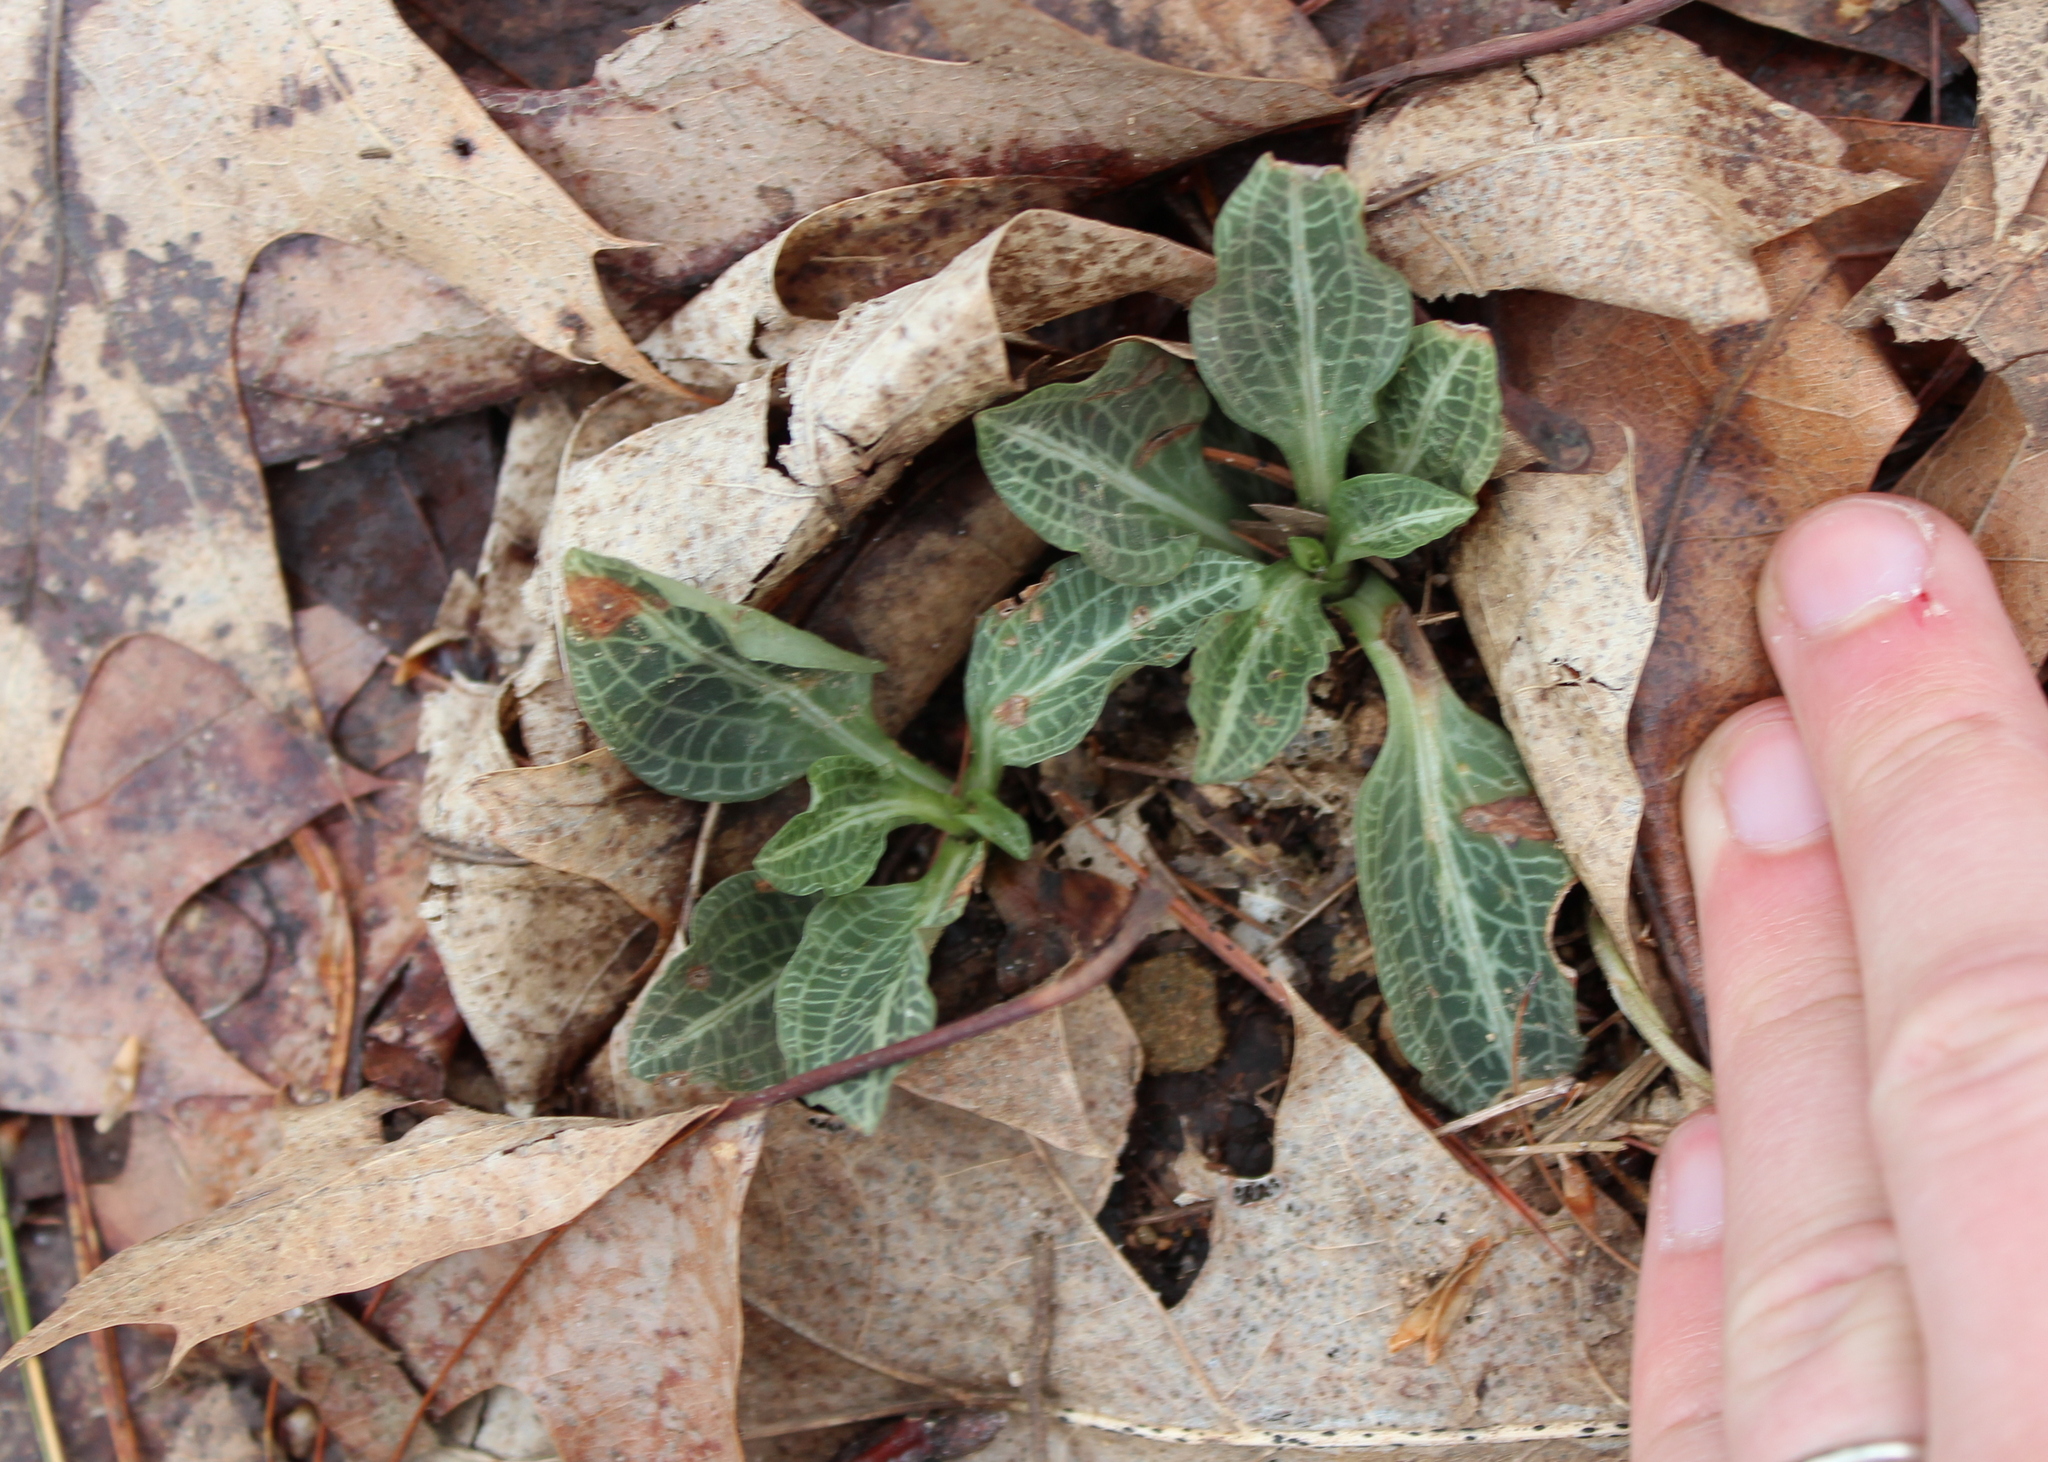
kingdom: Plantae
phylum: Tracheophyta
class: Liliopsida
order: Asparagales
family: Orchidaceae
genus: Goodyera
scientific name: Goodyera pubescens
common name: Downy rattlesnake-plantain
